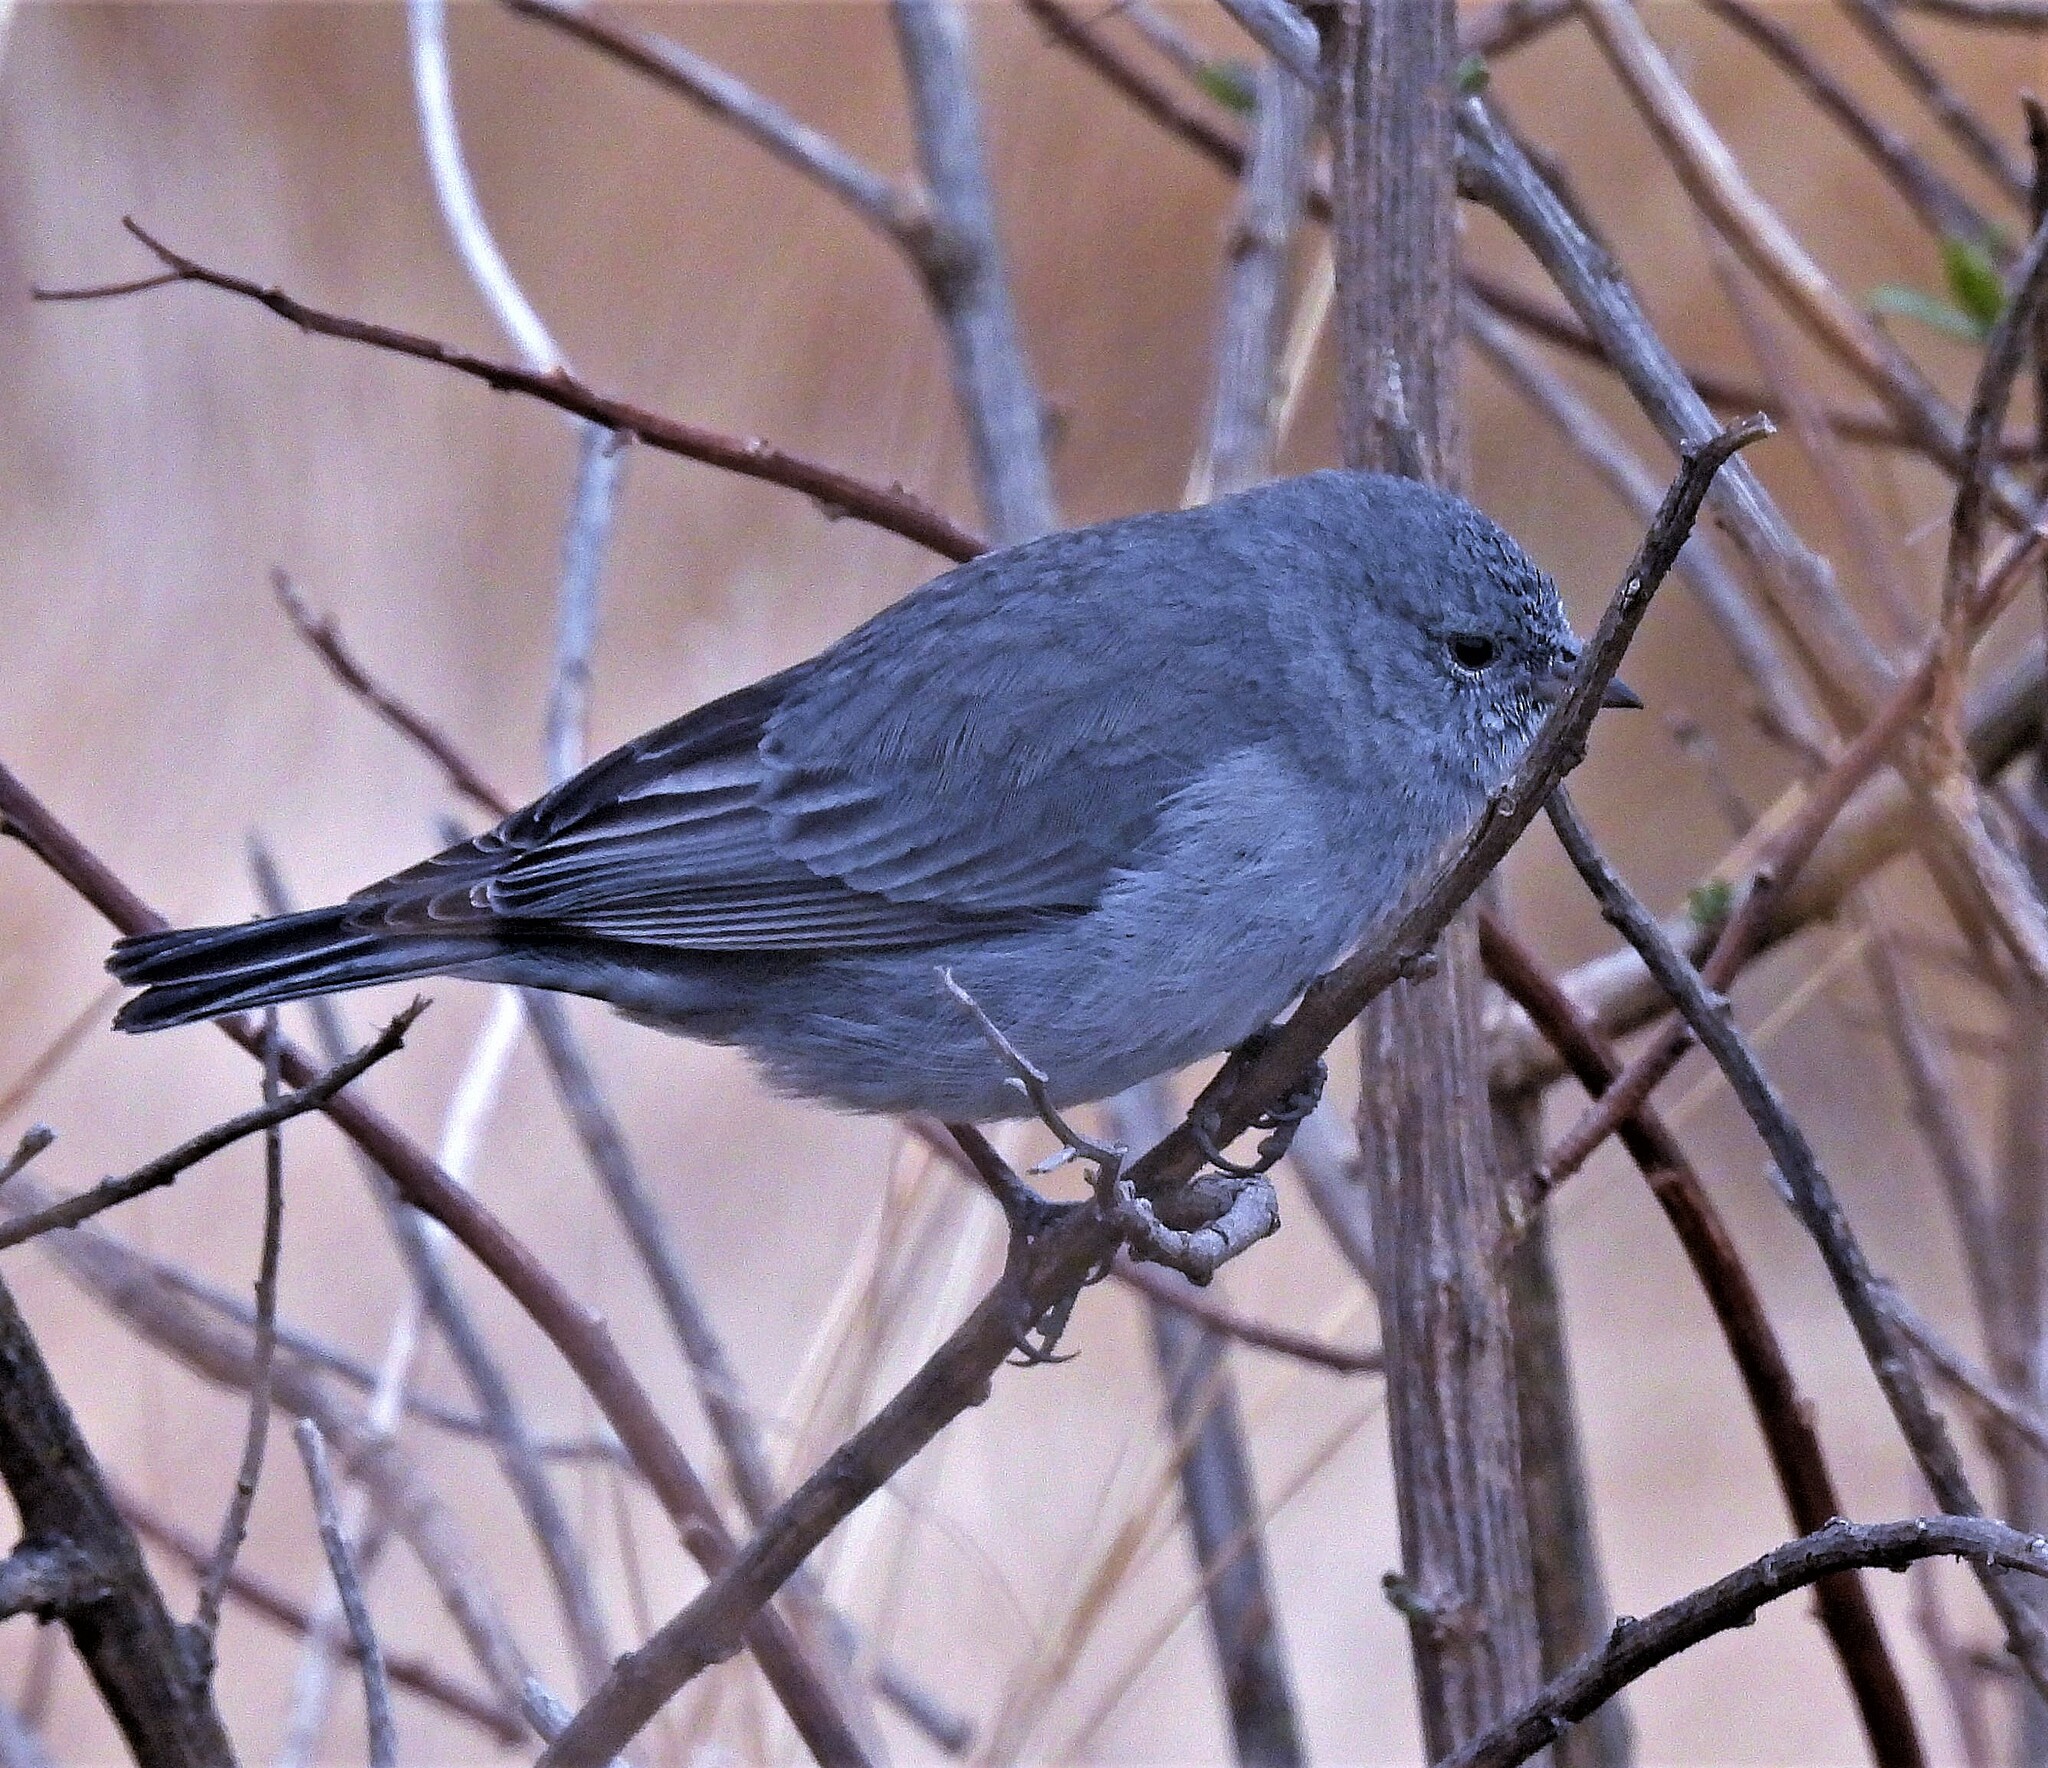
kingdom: Animalia
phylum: Chordata
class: Aves
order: Passeriformes
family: Thraupidae
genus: Geospizopsis
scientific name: Geospizopsis unicolor
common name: Plumbeous sierra-finch
